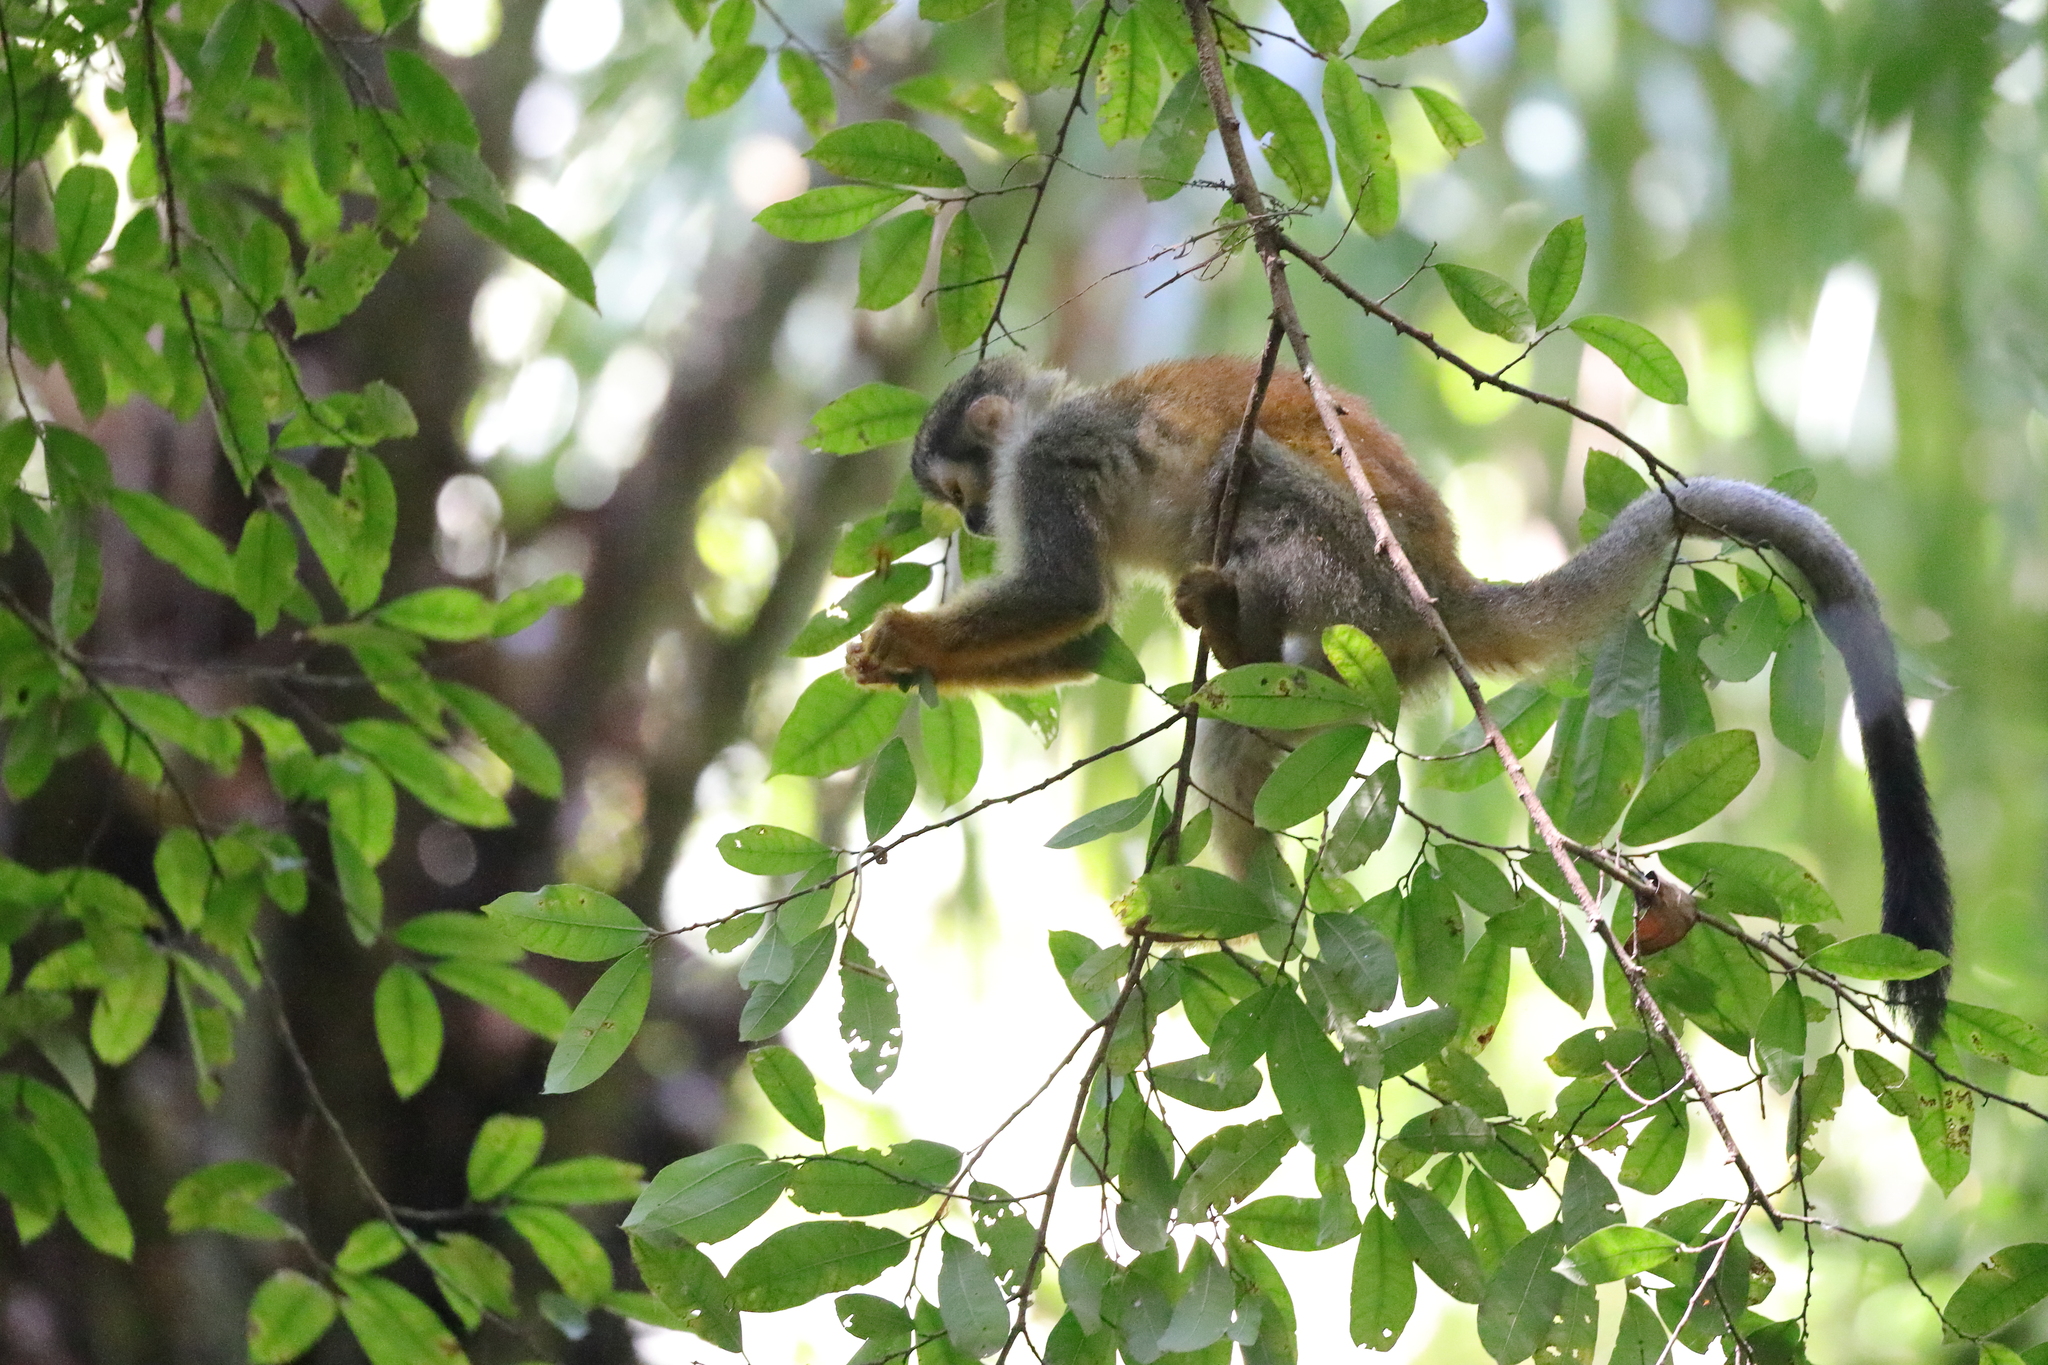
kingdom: Animalia
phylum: Chordata
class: Mammalia
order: Primates
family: Cebidae
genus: Saimiri
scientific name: Saimiri oerstedii
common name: Central american squirrel monkey
